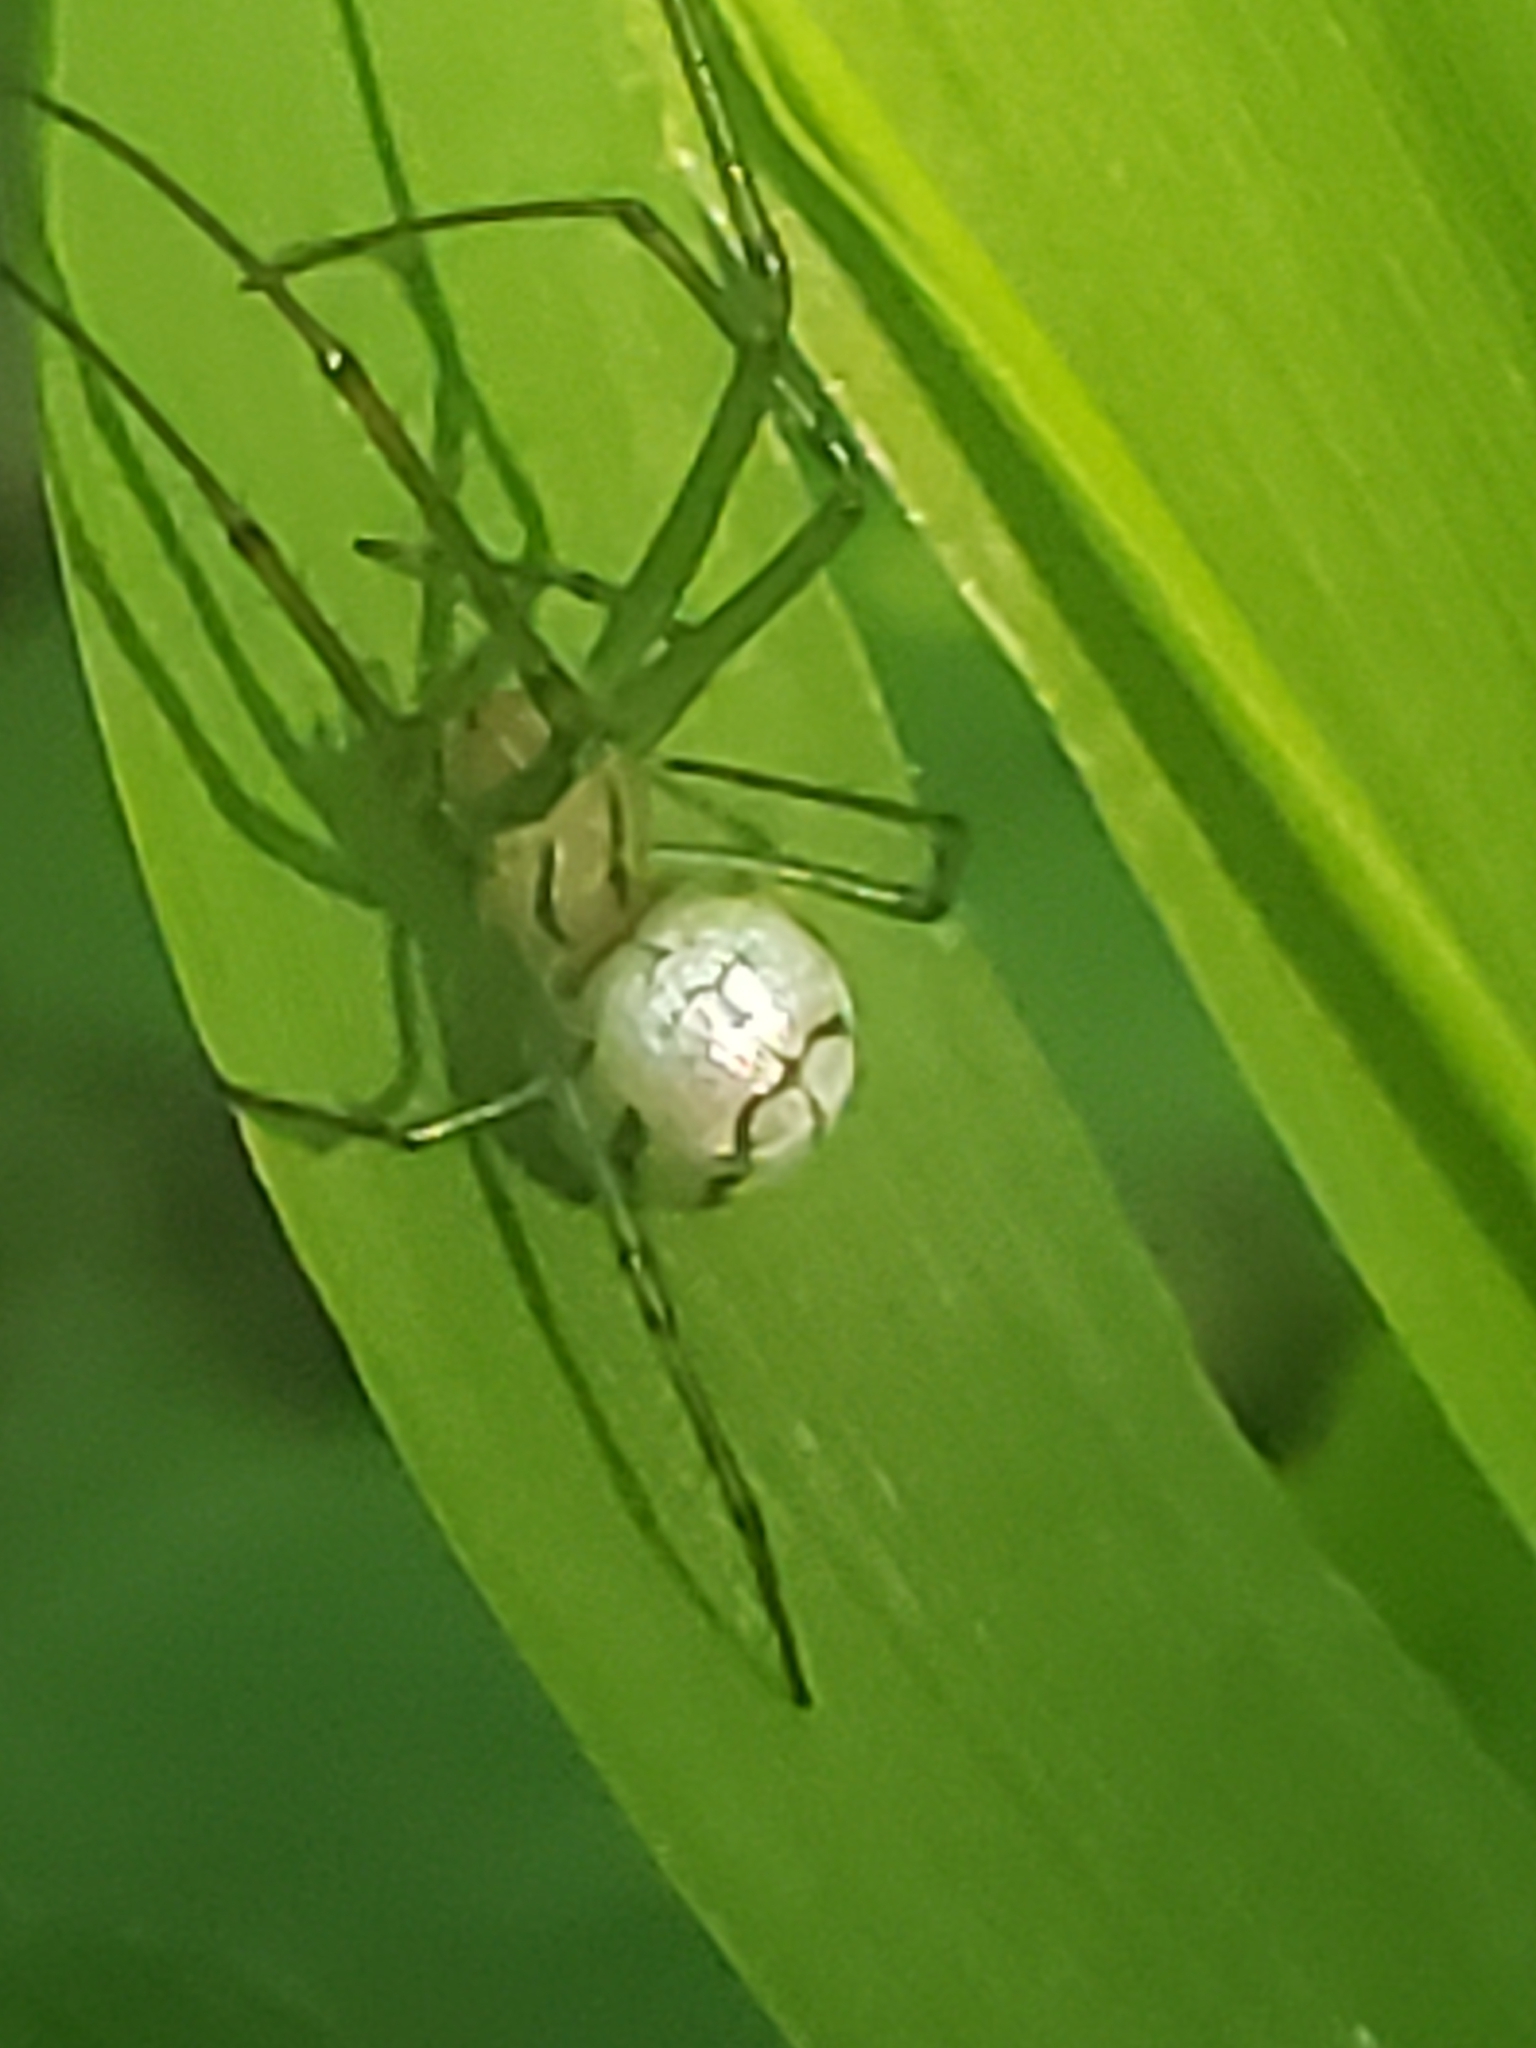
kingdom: Animalia
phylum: Arthropoda
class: Arachnida
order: Araneae
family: Tetragnathidae
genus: Leucauge
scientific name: Leucauge venusta
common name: Longjawed orb weavers
